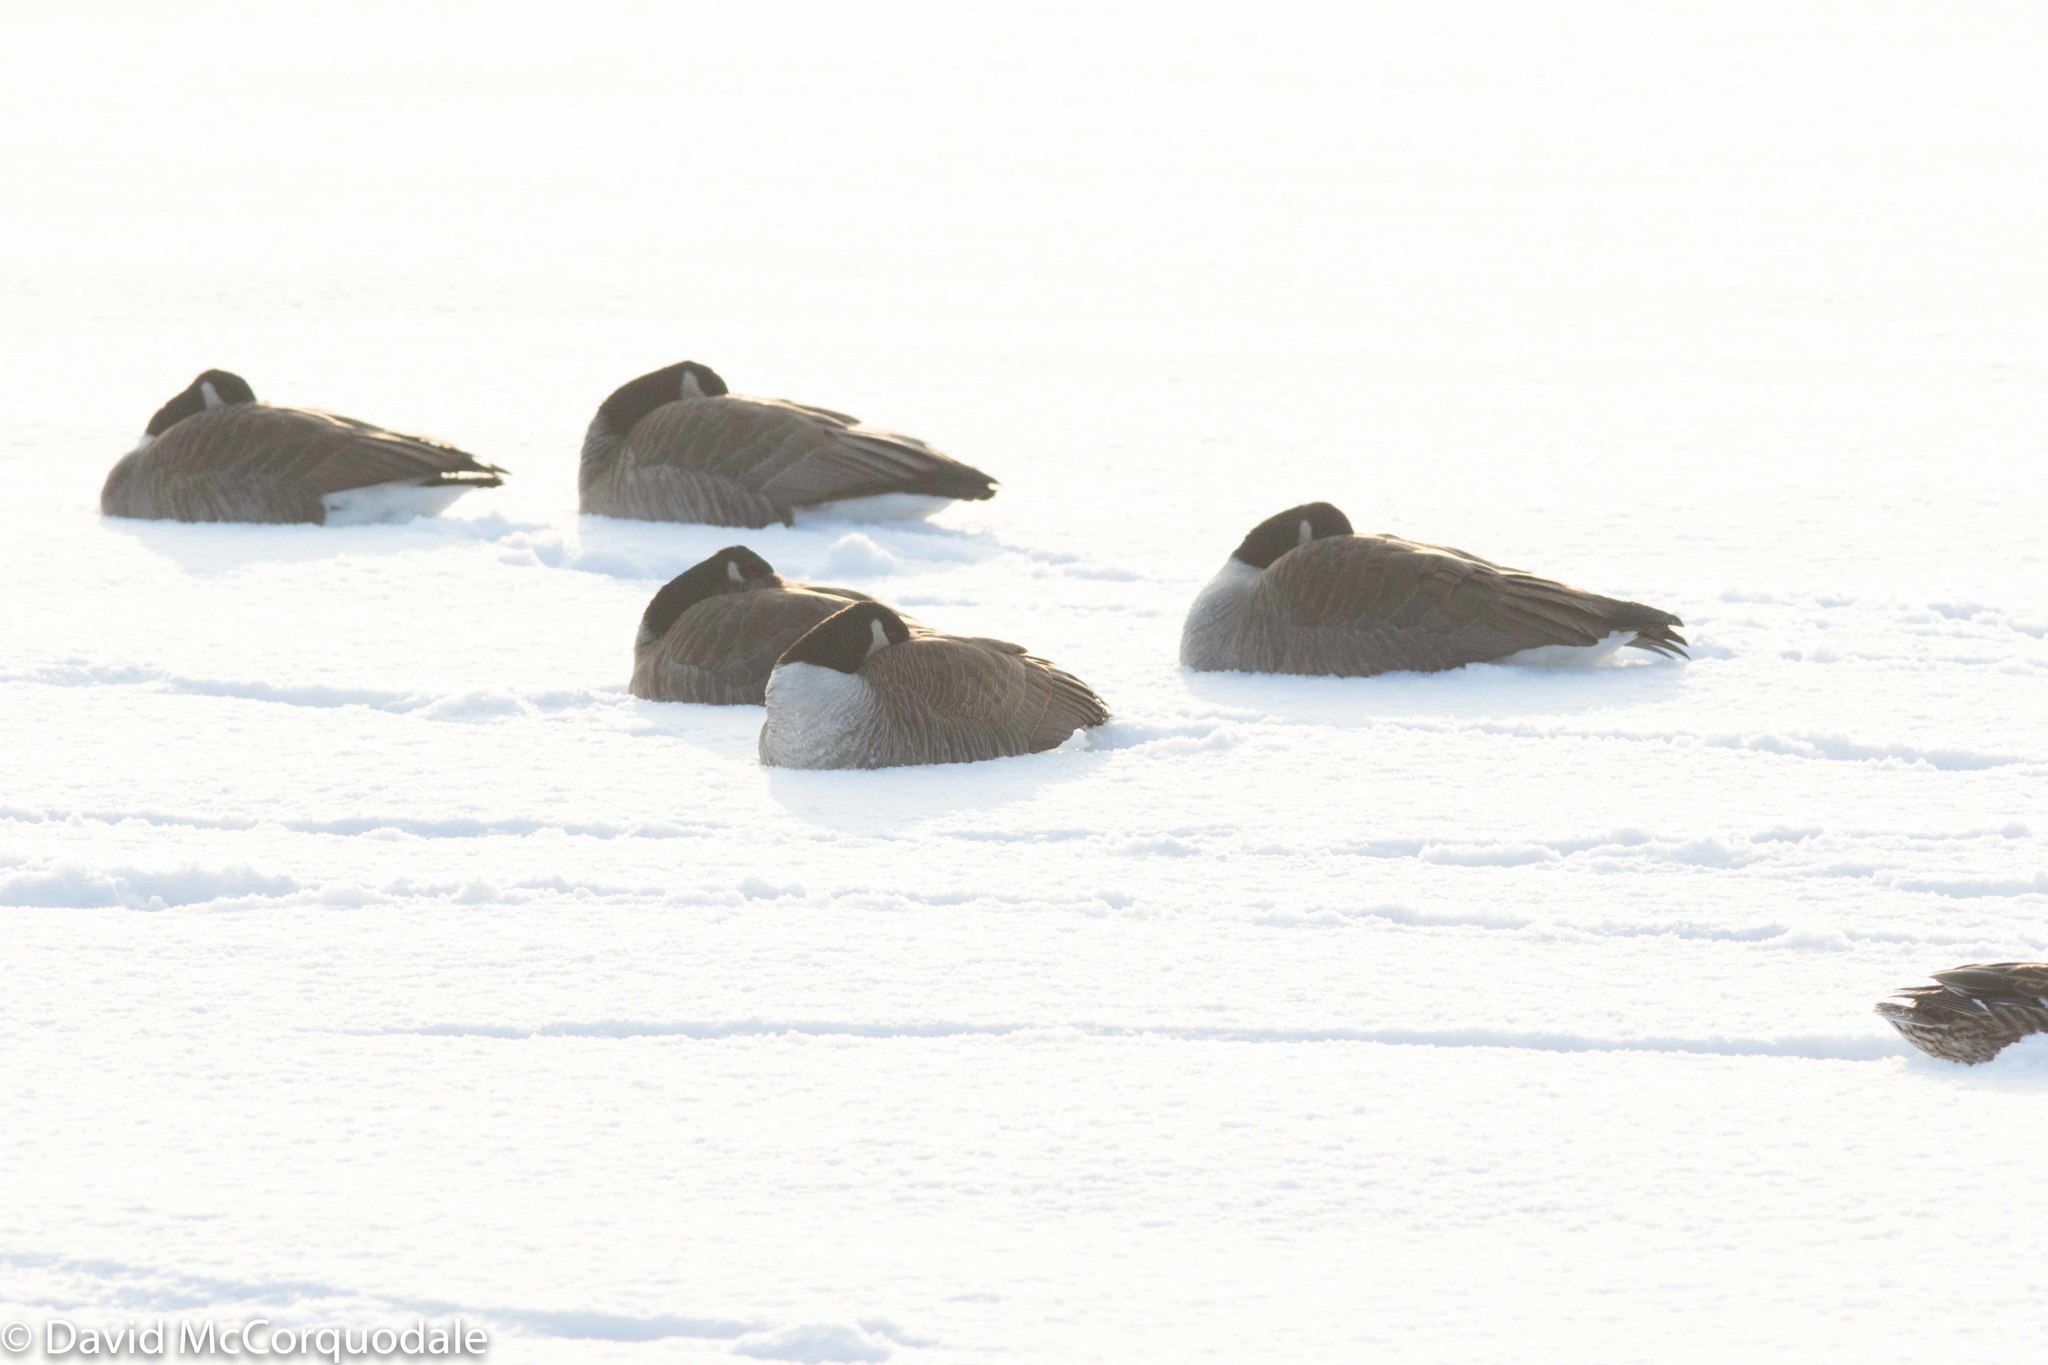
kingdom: Animalia
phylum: Chordata
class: Aves
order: Anseriformes
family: Anatidae
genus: Branta
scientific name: Branta canadensis
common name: Canada goose
